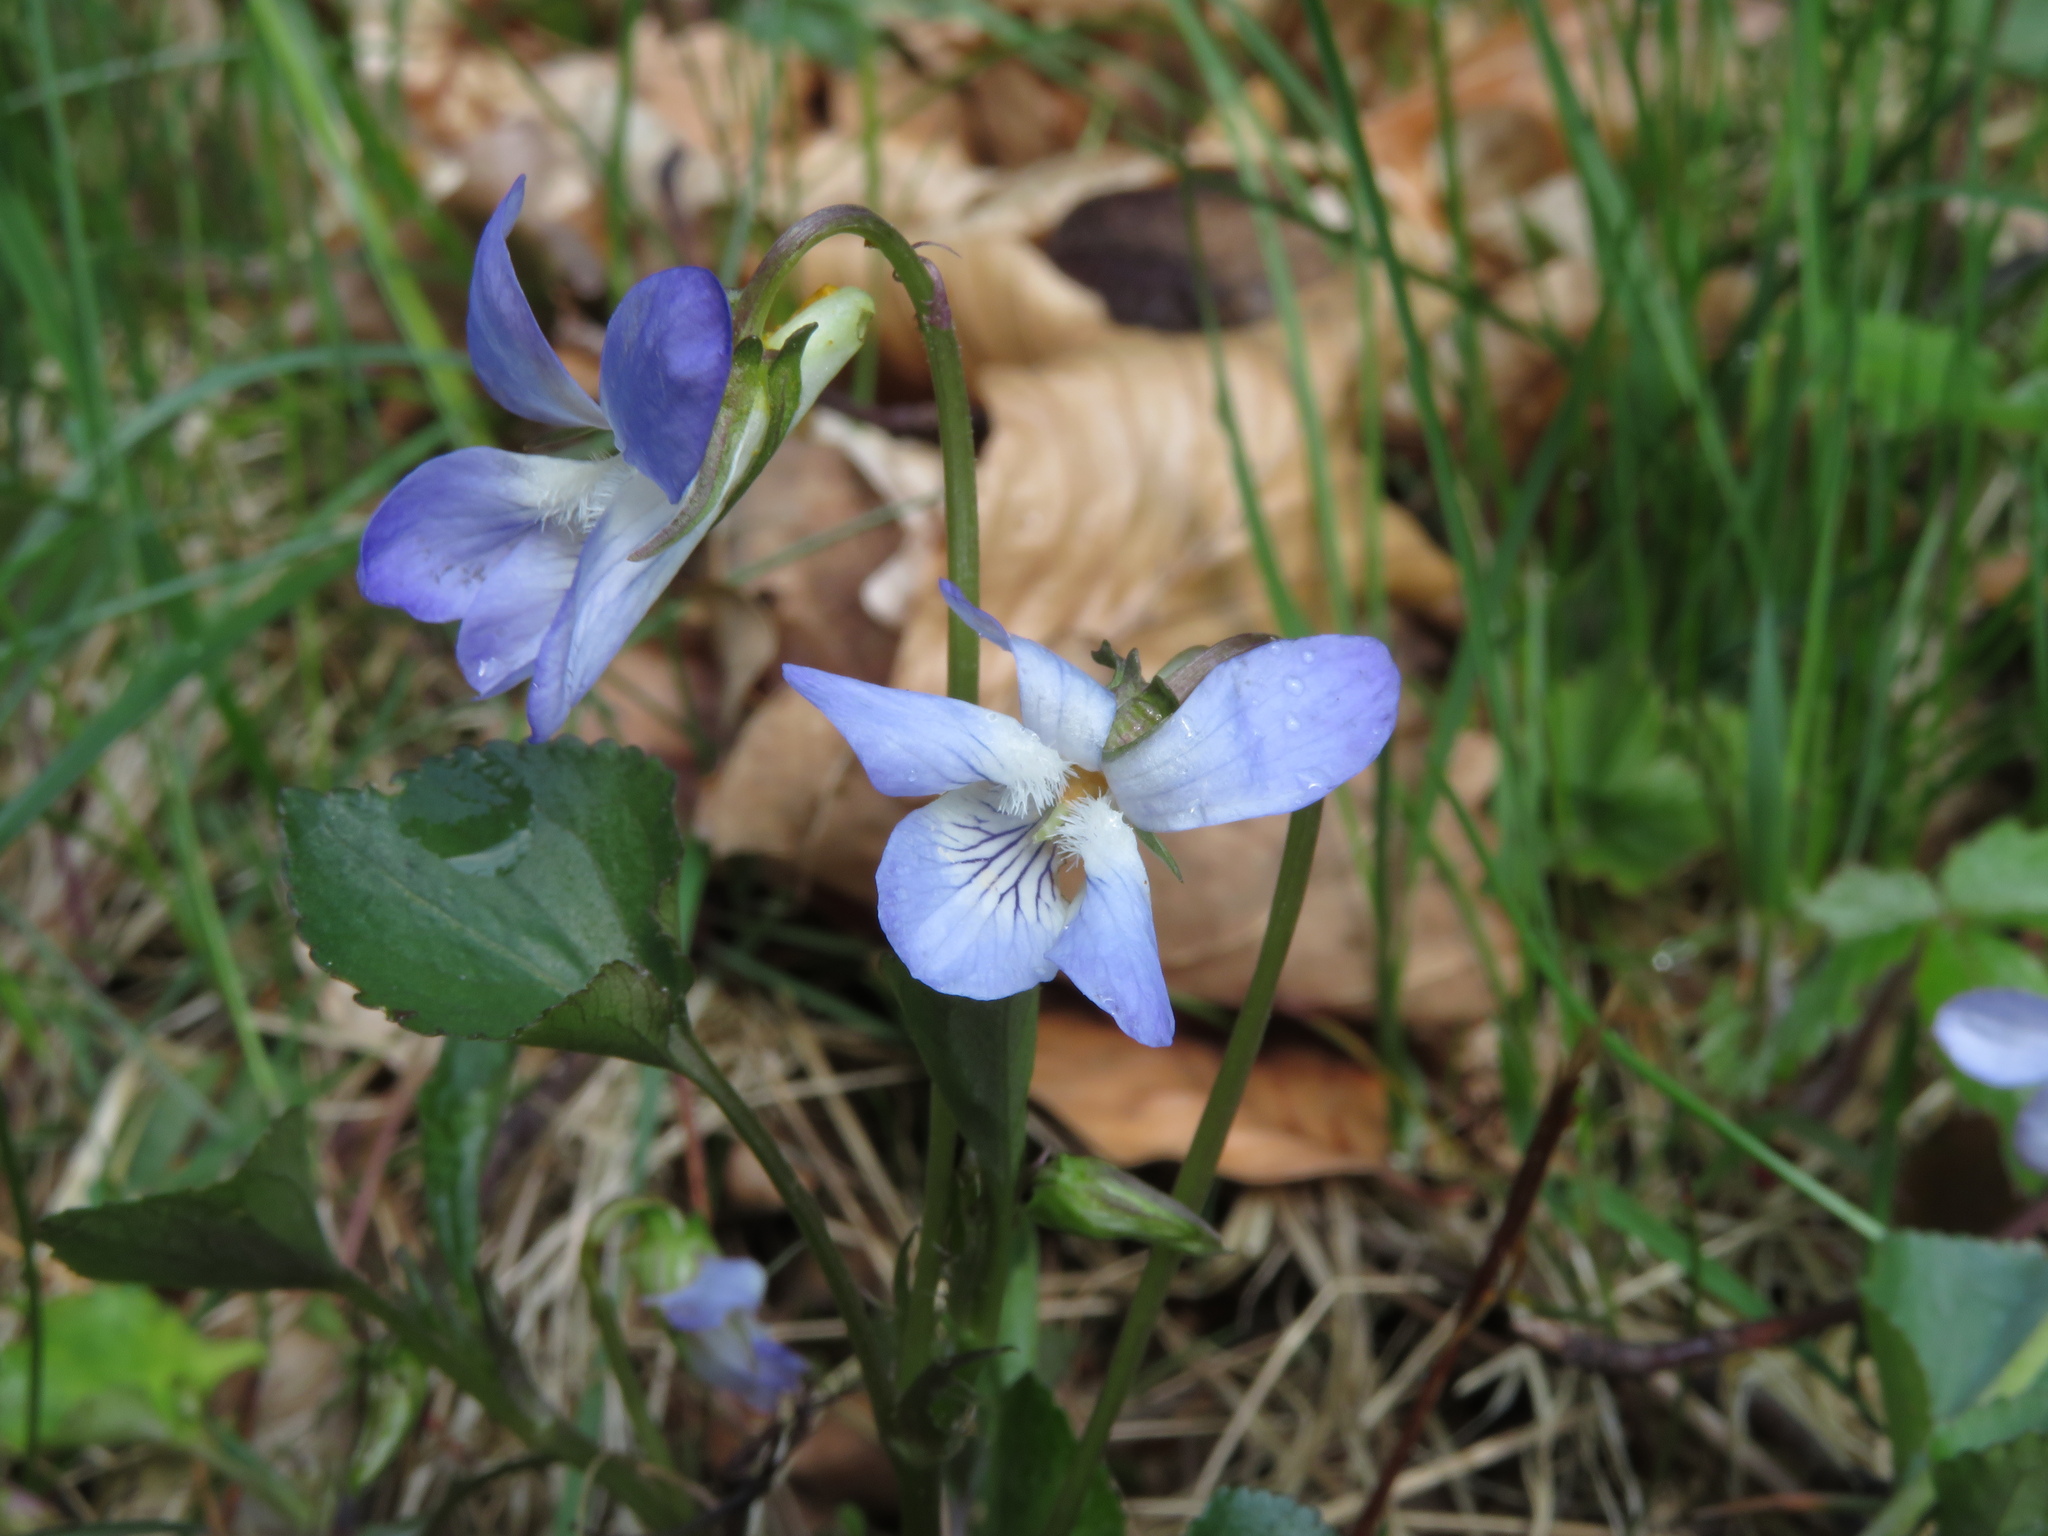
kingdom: Plantae
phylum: Tracheophyta
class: Magnoliopsida
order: Malpighiales
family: Violaceae
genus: Viola
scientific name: Viola riviniana
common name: Common dog-violet
